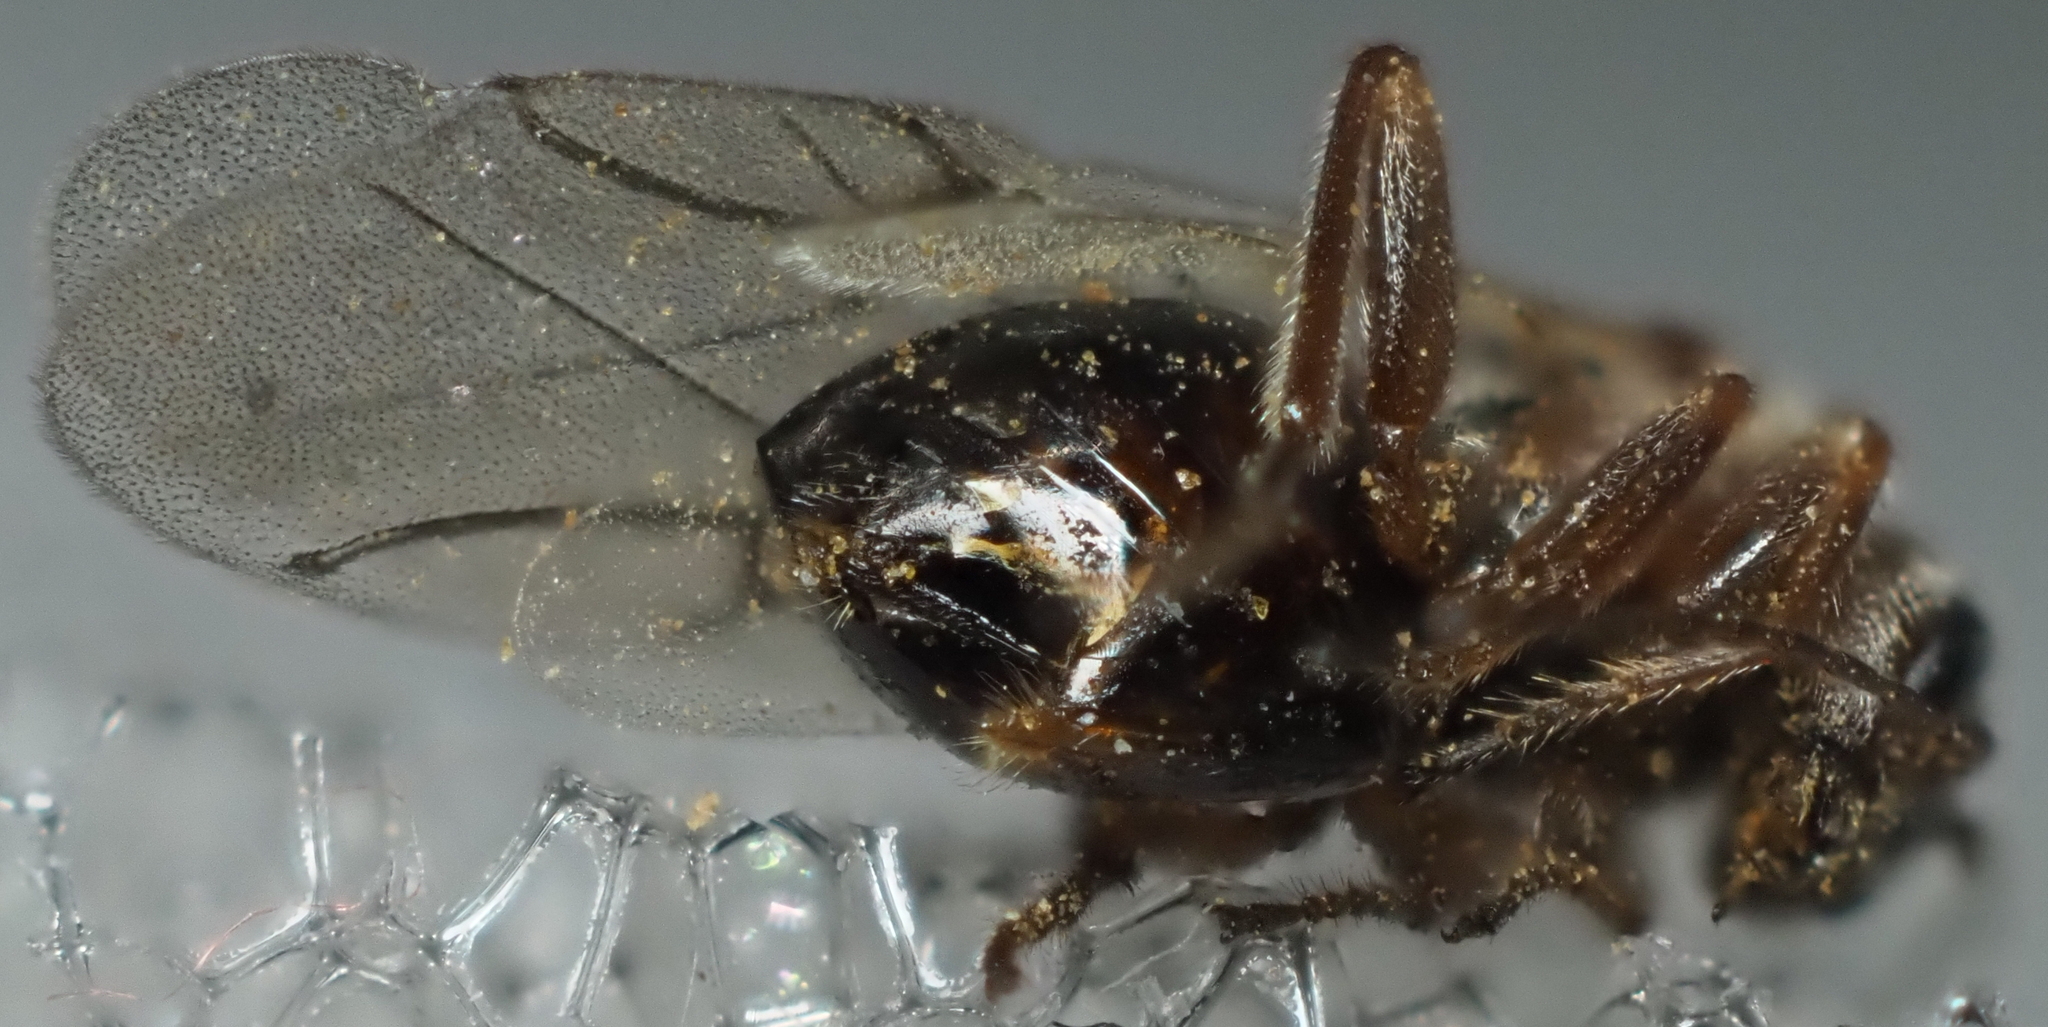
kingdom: Animalia
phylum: Arthropoda
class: Insecta
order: Hymenoptera
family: Cynipidae
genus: Disholcaspis
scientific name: Disholcaspis
